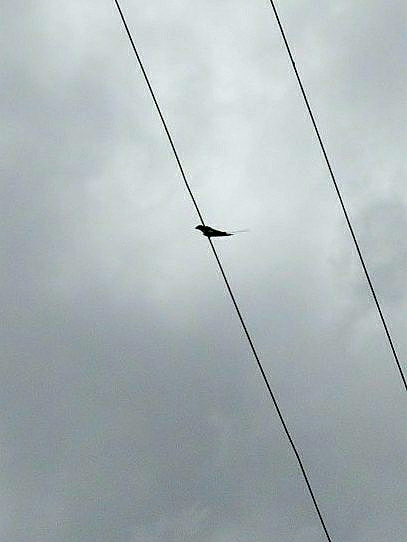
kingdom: Animalia
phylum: Chordata
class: Aves
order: Passeriformes
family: Hirundinidae
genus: Hirundo
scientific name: Hirundo smithii
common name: Wire-tailed swallow
